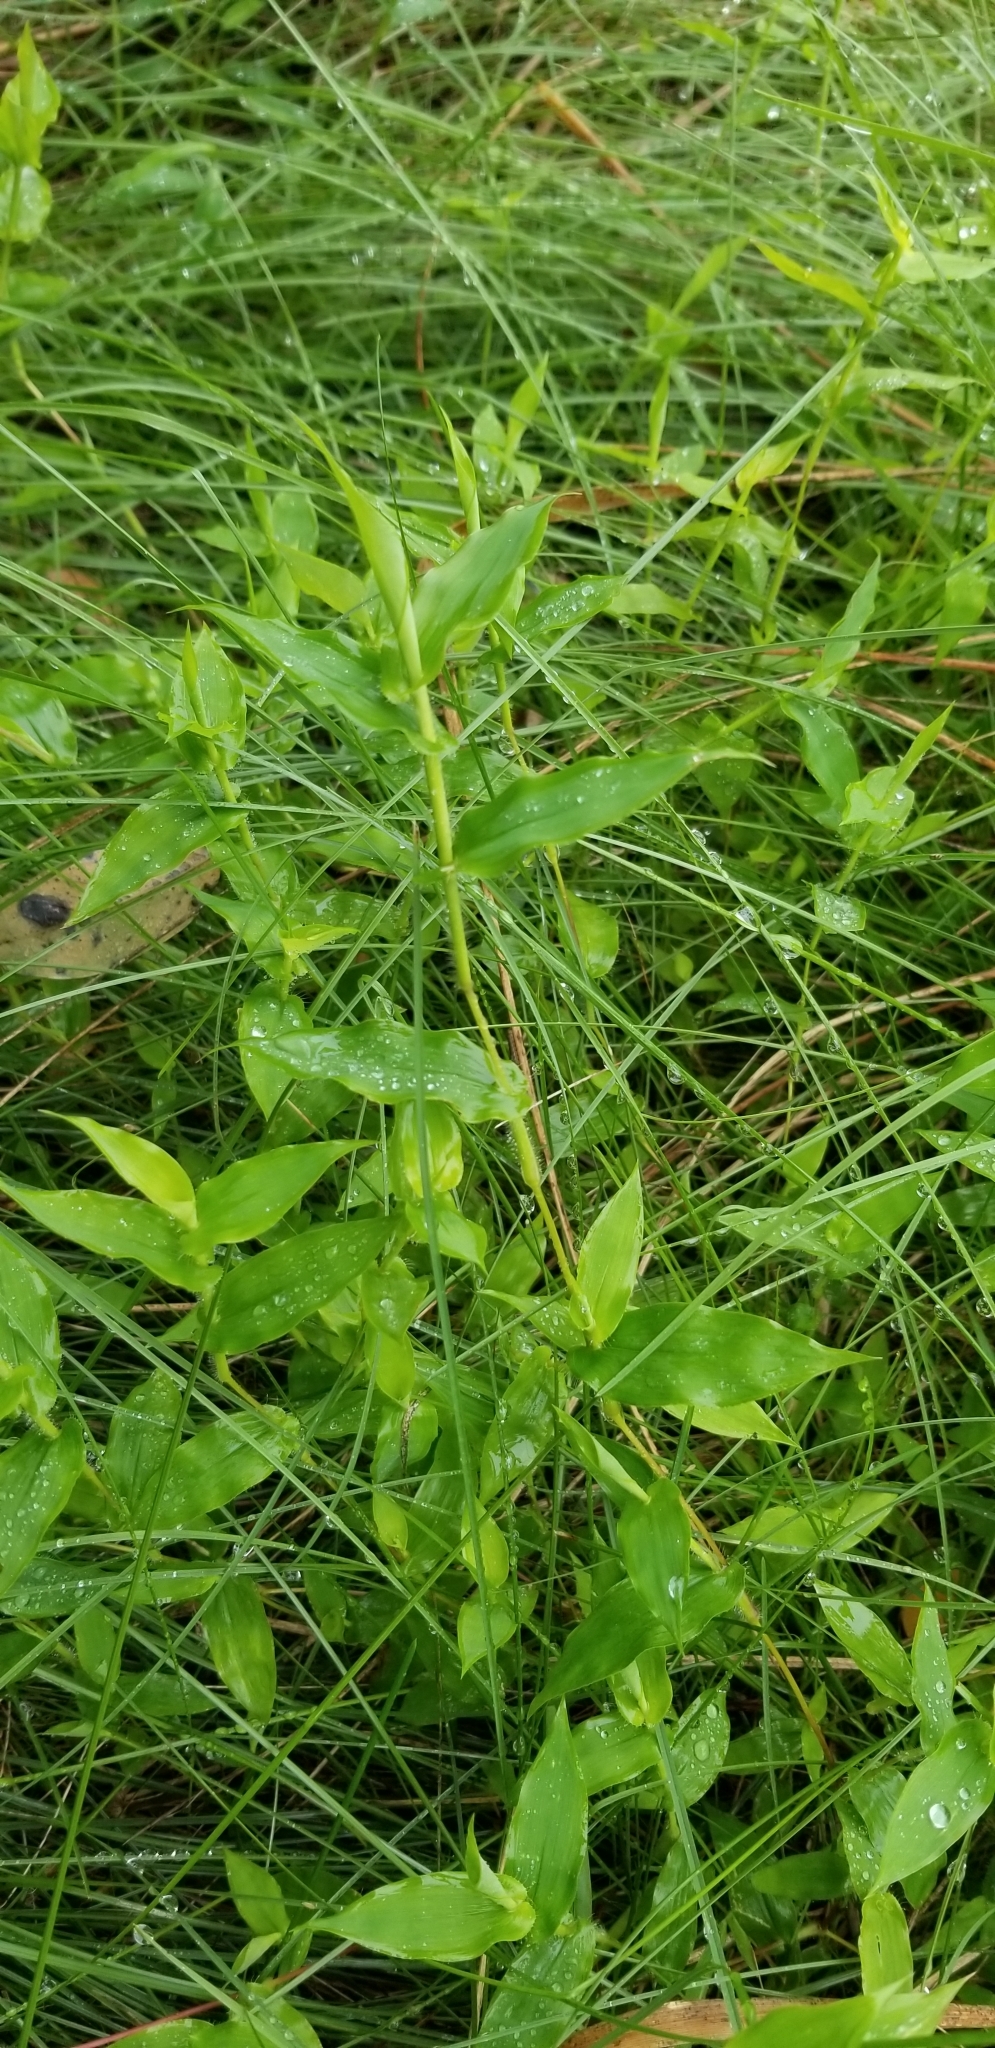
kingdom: Plantae
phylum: Tracheophyta
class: Liliopsida
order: Poales
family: Poaceae
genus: Arthraxon
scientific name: Arthraxon hispidus
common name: Small carpgrass
